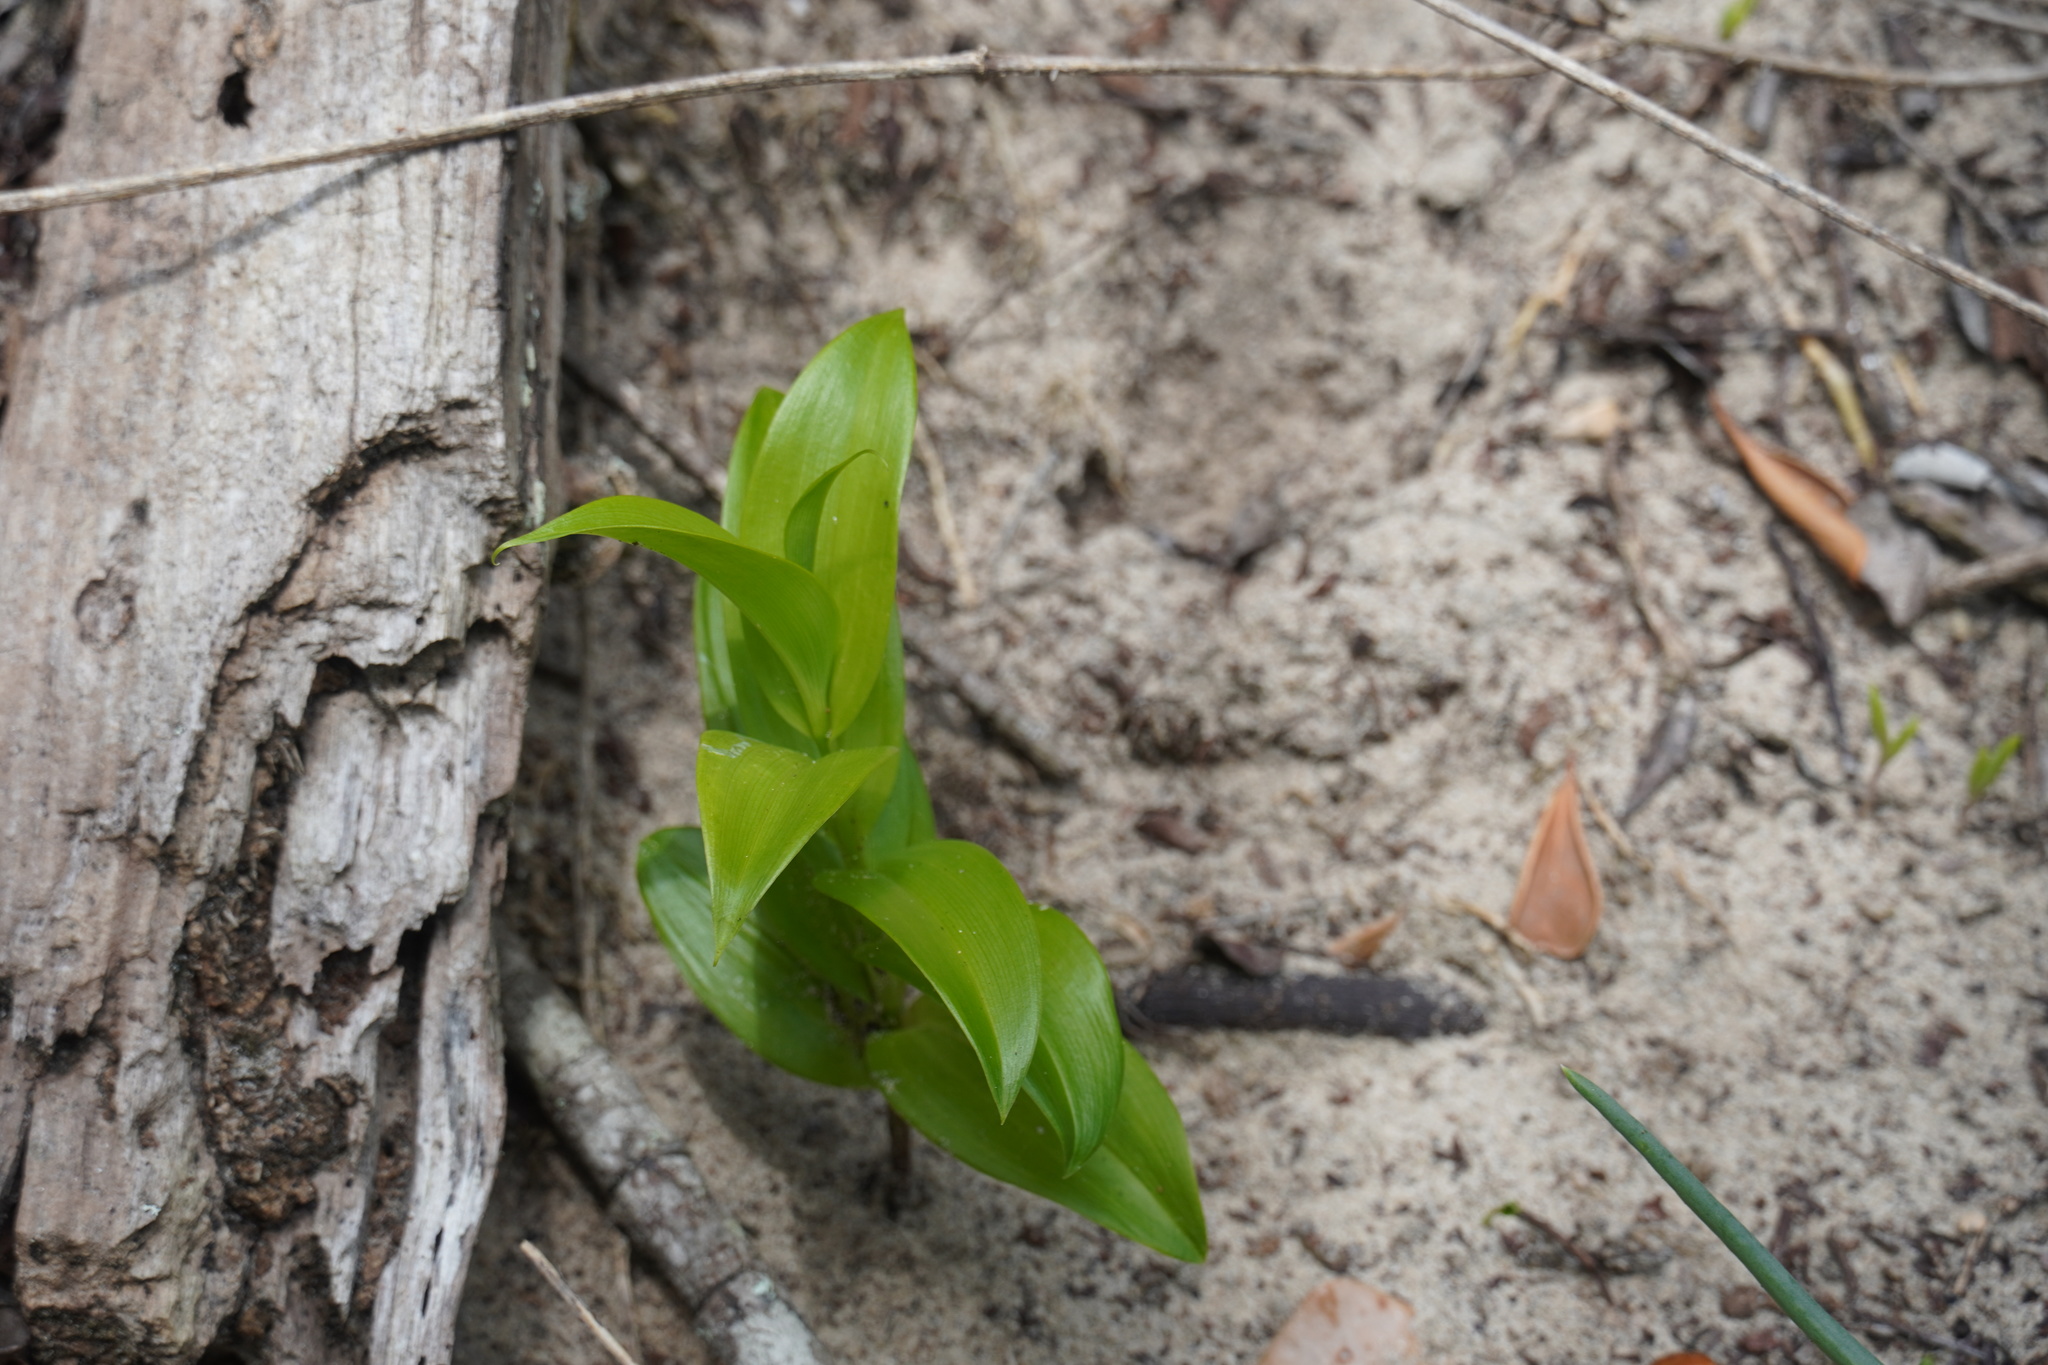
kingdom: Plantae
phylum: Tracheophyta
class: Liliopsida
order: Liliales
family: Colchicaceae
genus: Gloriosa
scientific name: Gloriosa superba
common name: Flame lily
